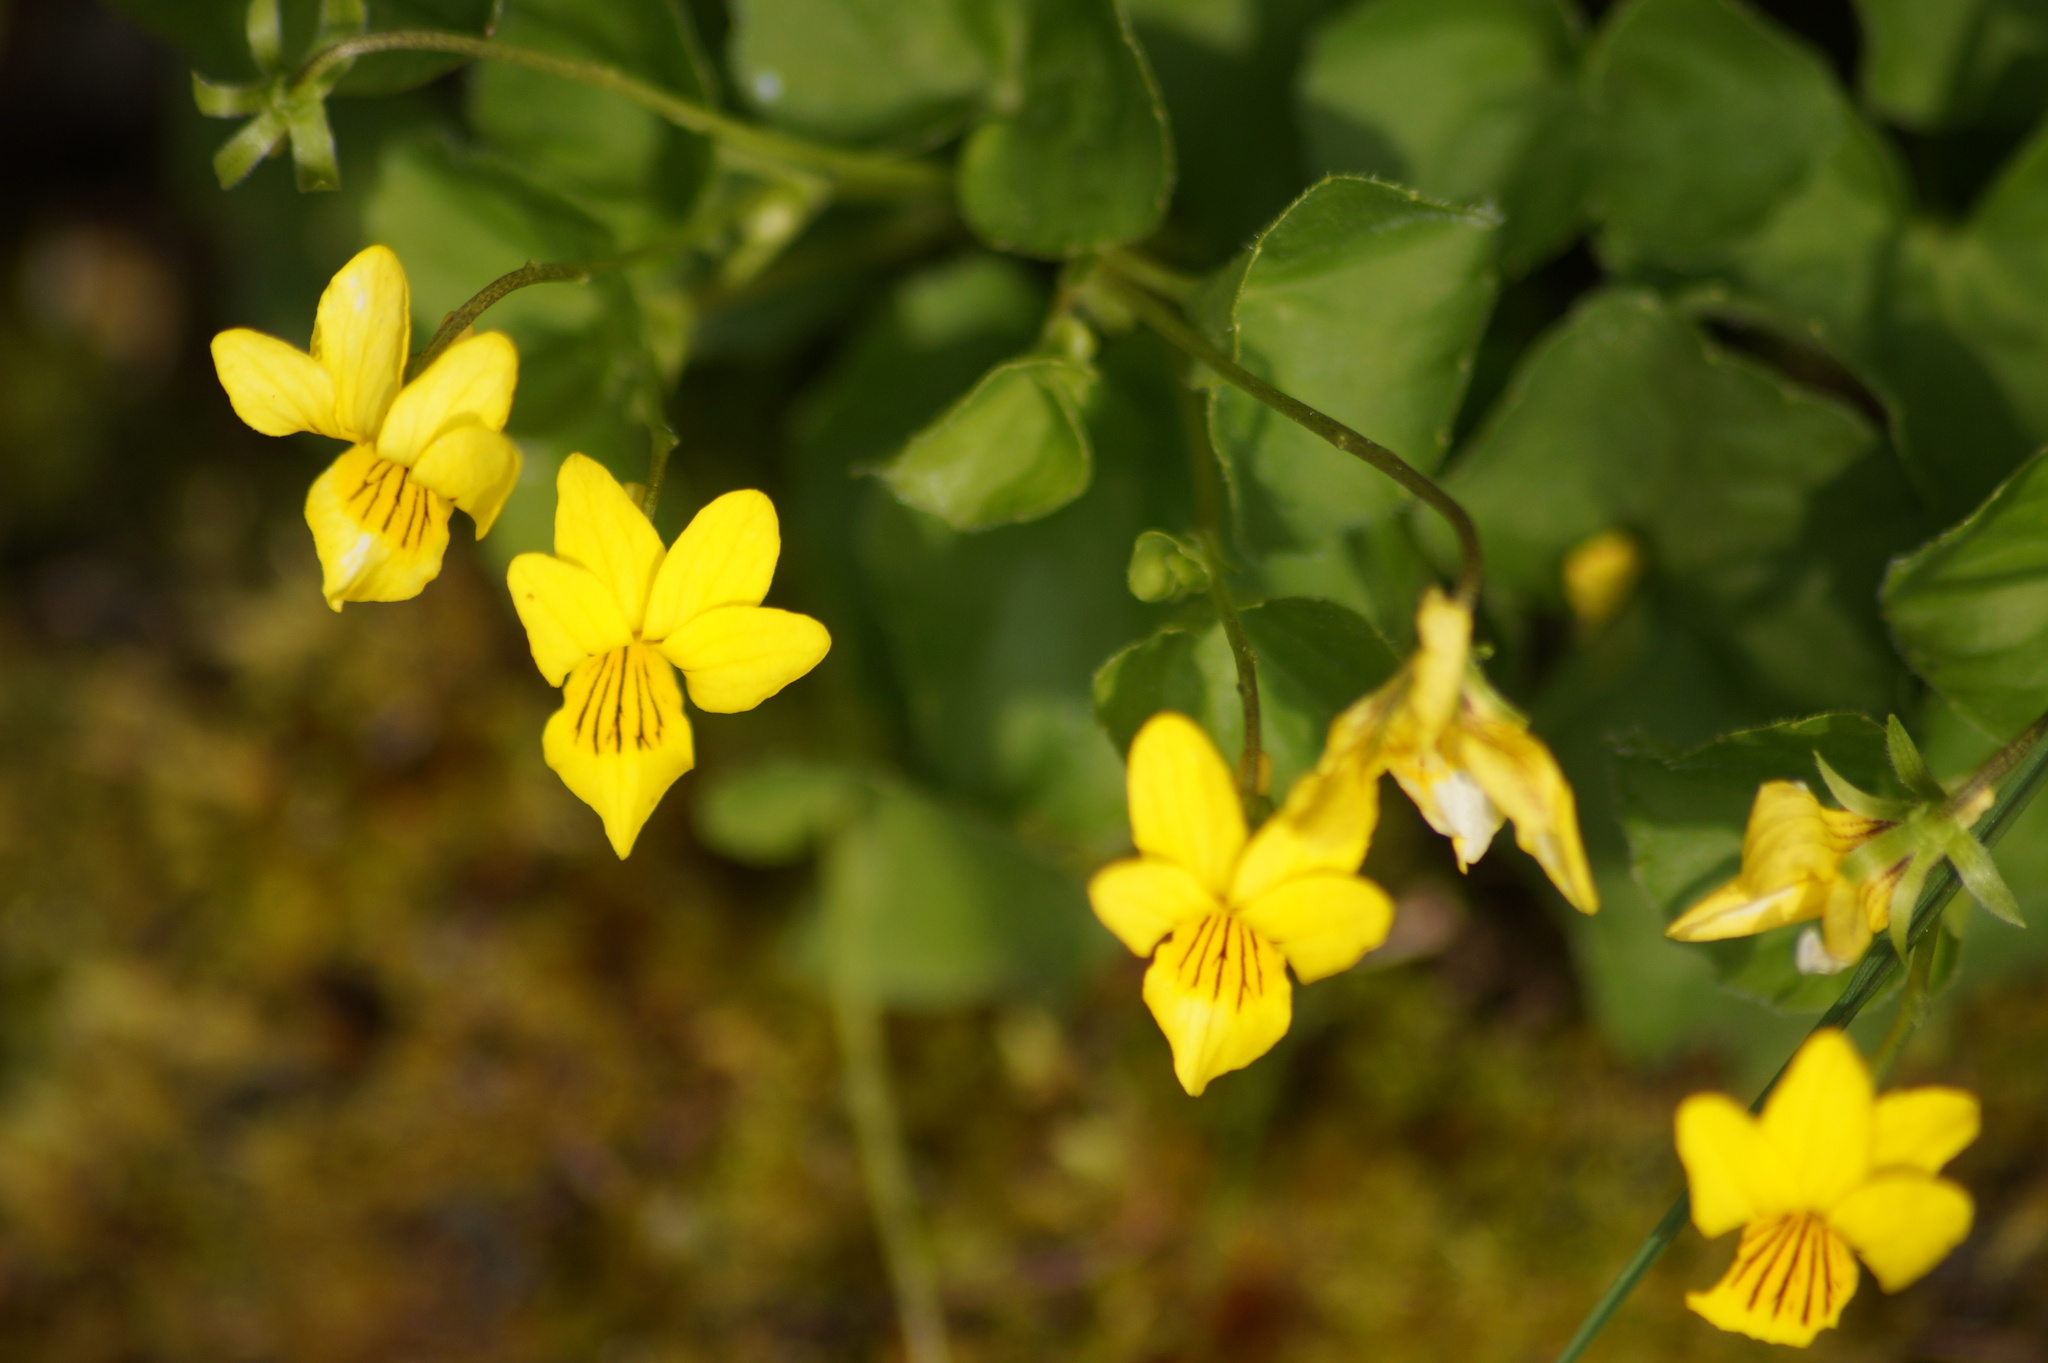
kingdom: Plantae
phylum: Tracheophyta
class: Magnoliopsida
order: Malpighiales
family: Violaceae
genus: Viola
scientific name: Viola biflora
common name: Alpine yellow violet
